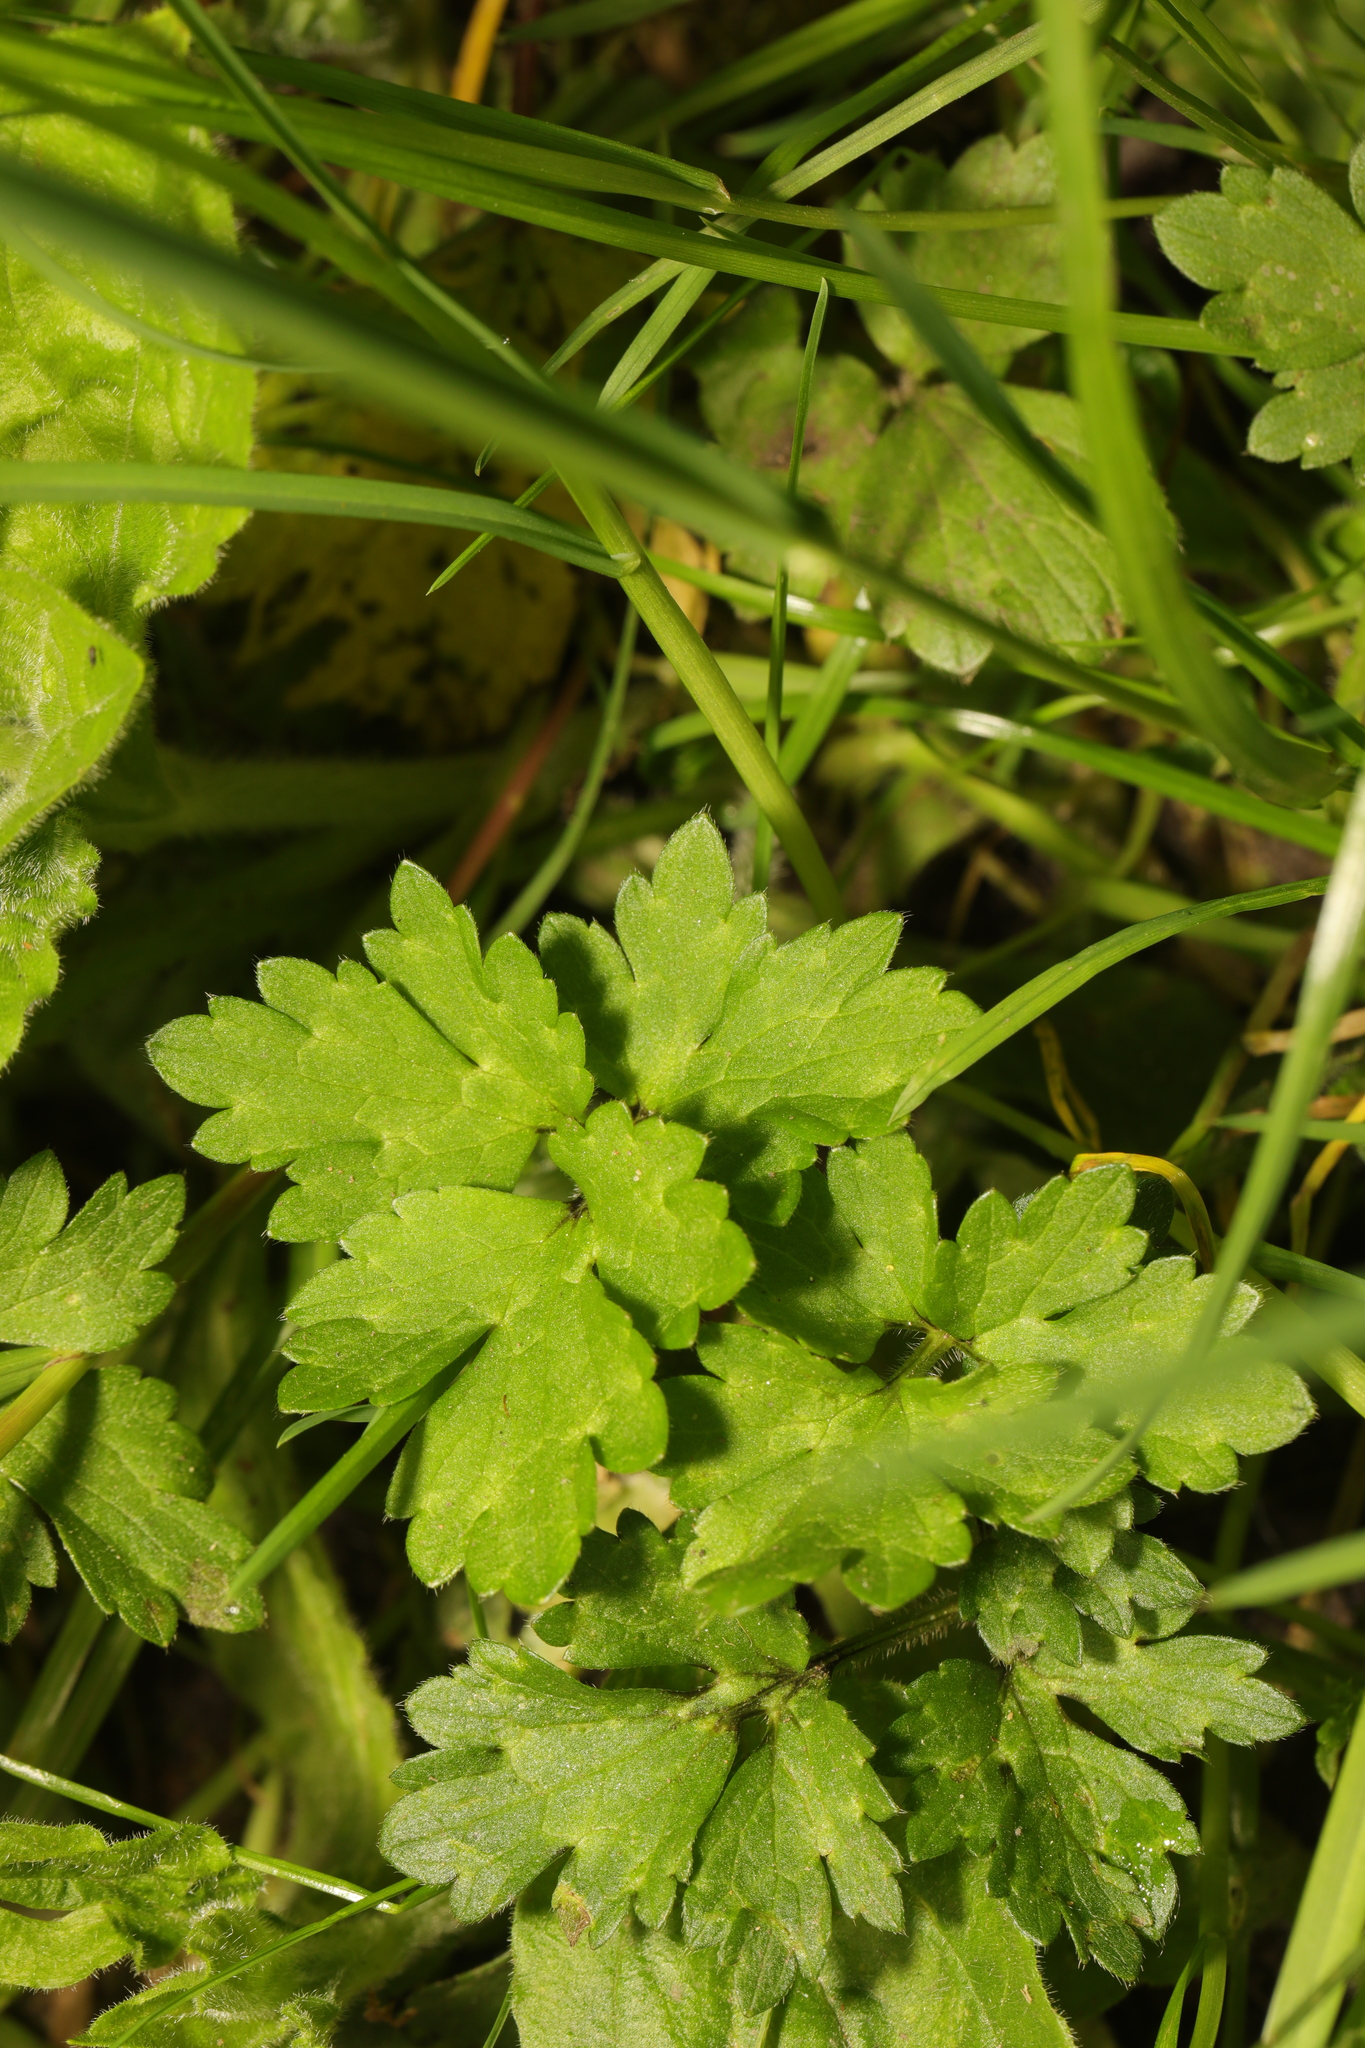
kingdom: Plantae
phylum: Tracheophyta
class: Magnoliopsida
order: Ranunculales
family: Ranunculaceae
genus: Ranunculus
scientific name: Ranunculus repens
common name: Creeping buttercup
